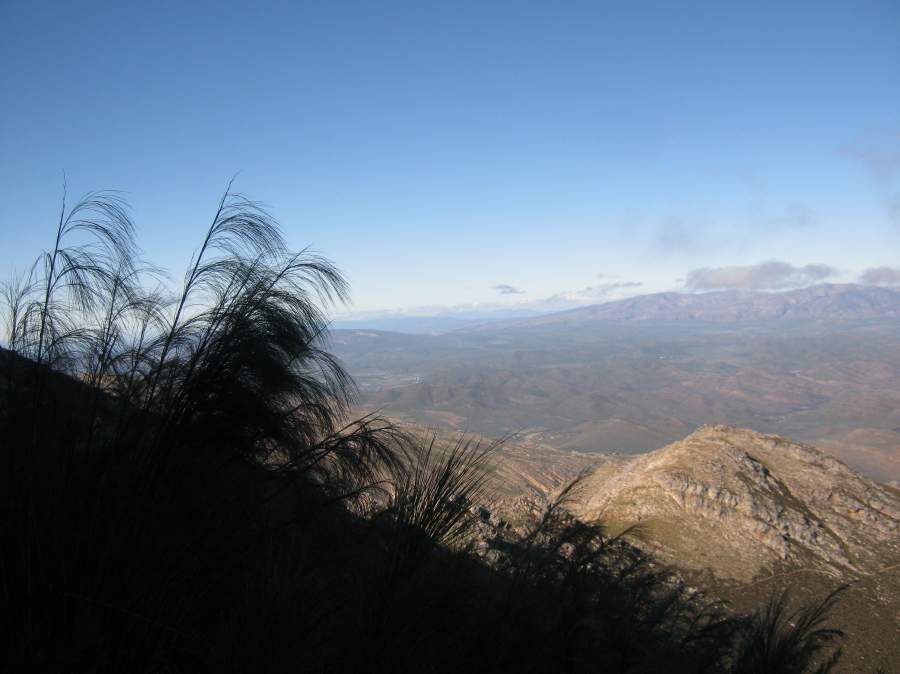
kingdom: Plantae
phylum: Tracheophyta
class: Liliopsida
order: Poales
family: Restionaceae
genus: Cannomois
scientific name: Cannomois virgata
